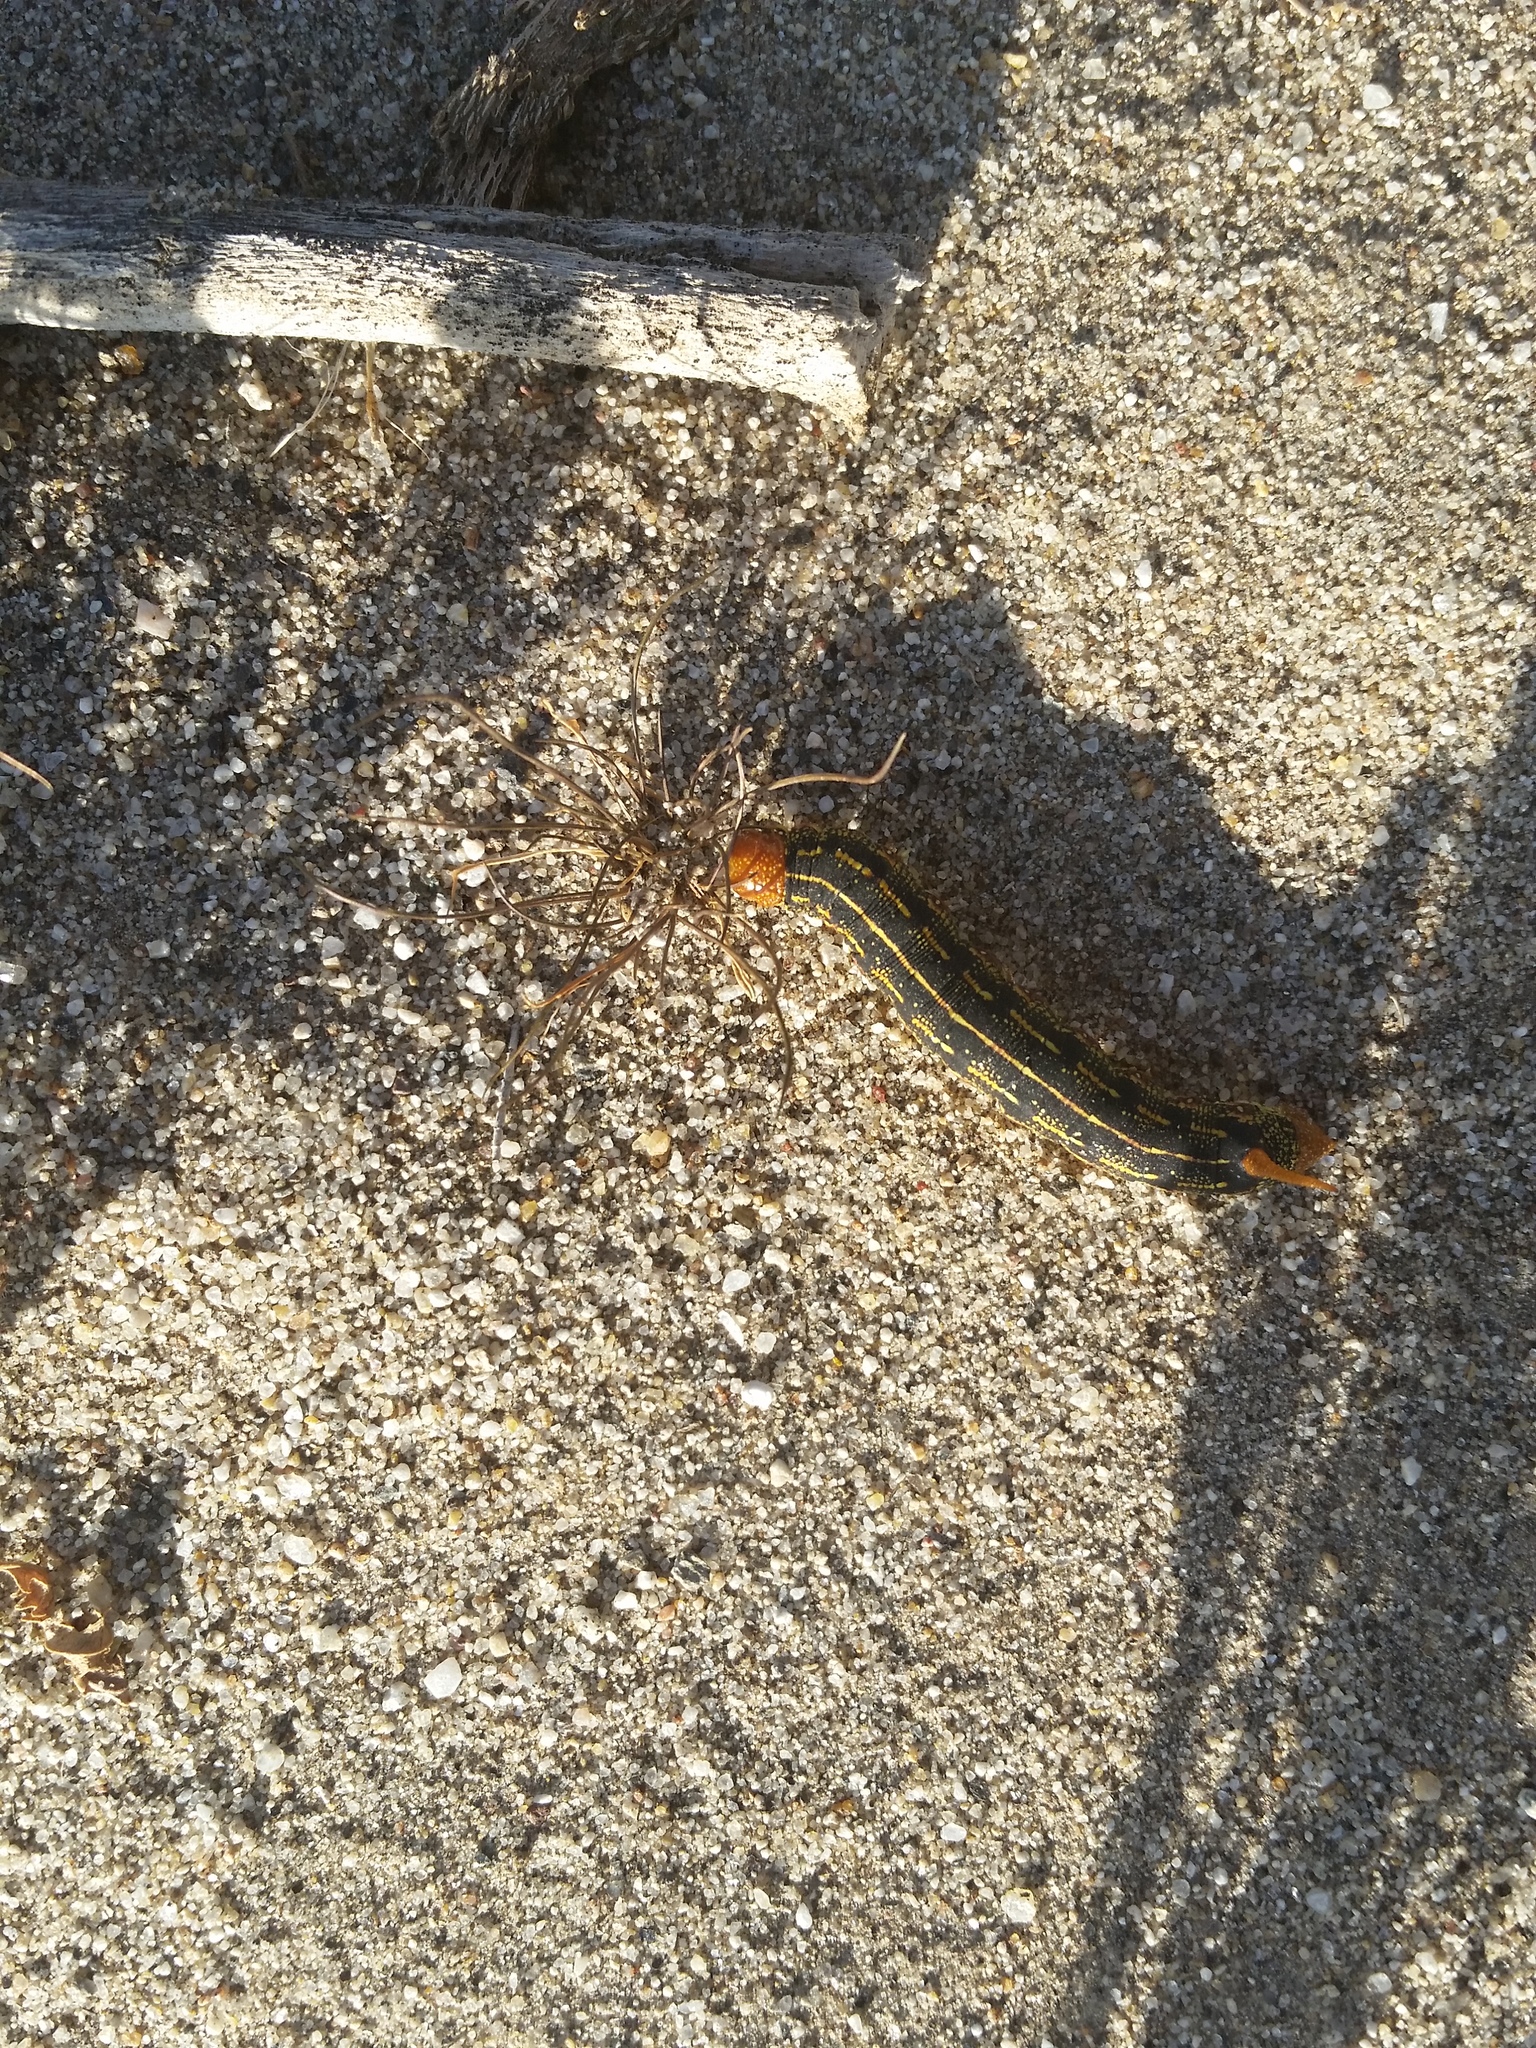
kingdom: Animalia
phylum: Arthropoda
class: Insecta
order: Lepidoptera
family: Sphingidae
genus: Hyles
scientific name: Hyles lineata
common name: White-lined sphinx
